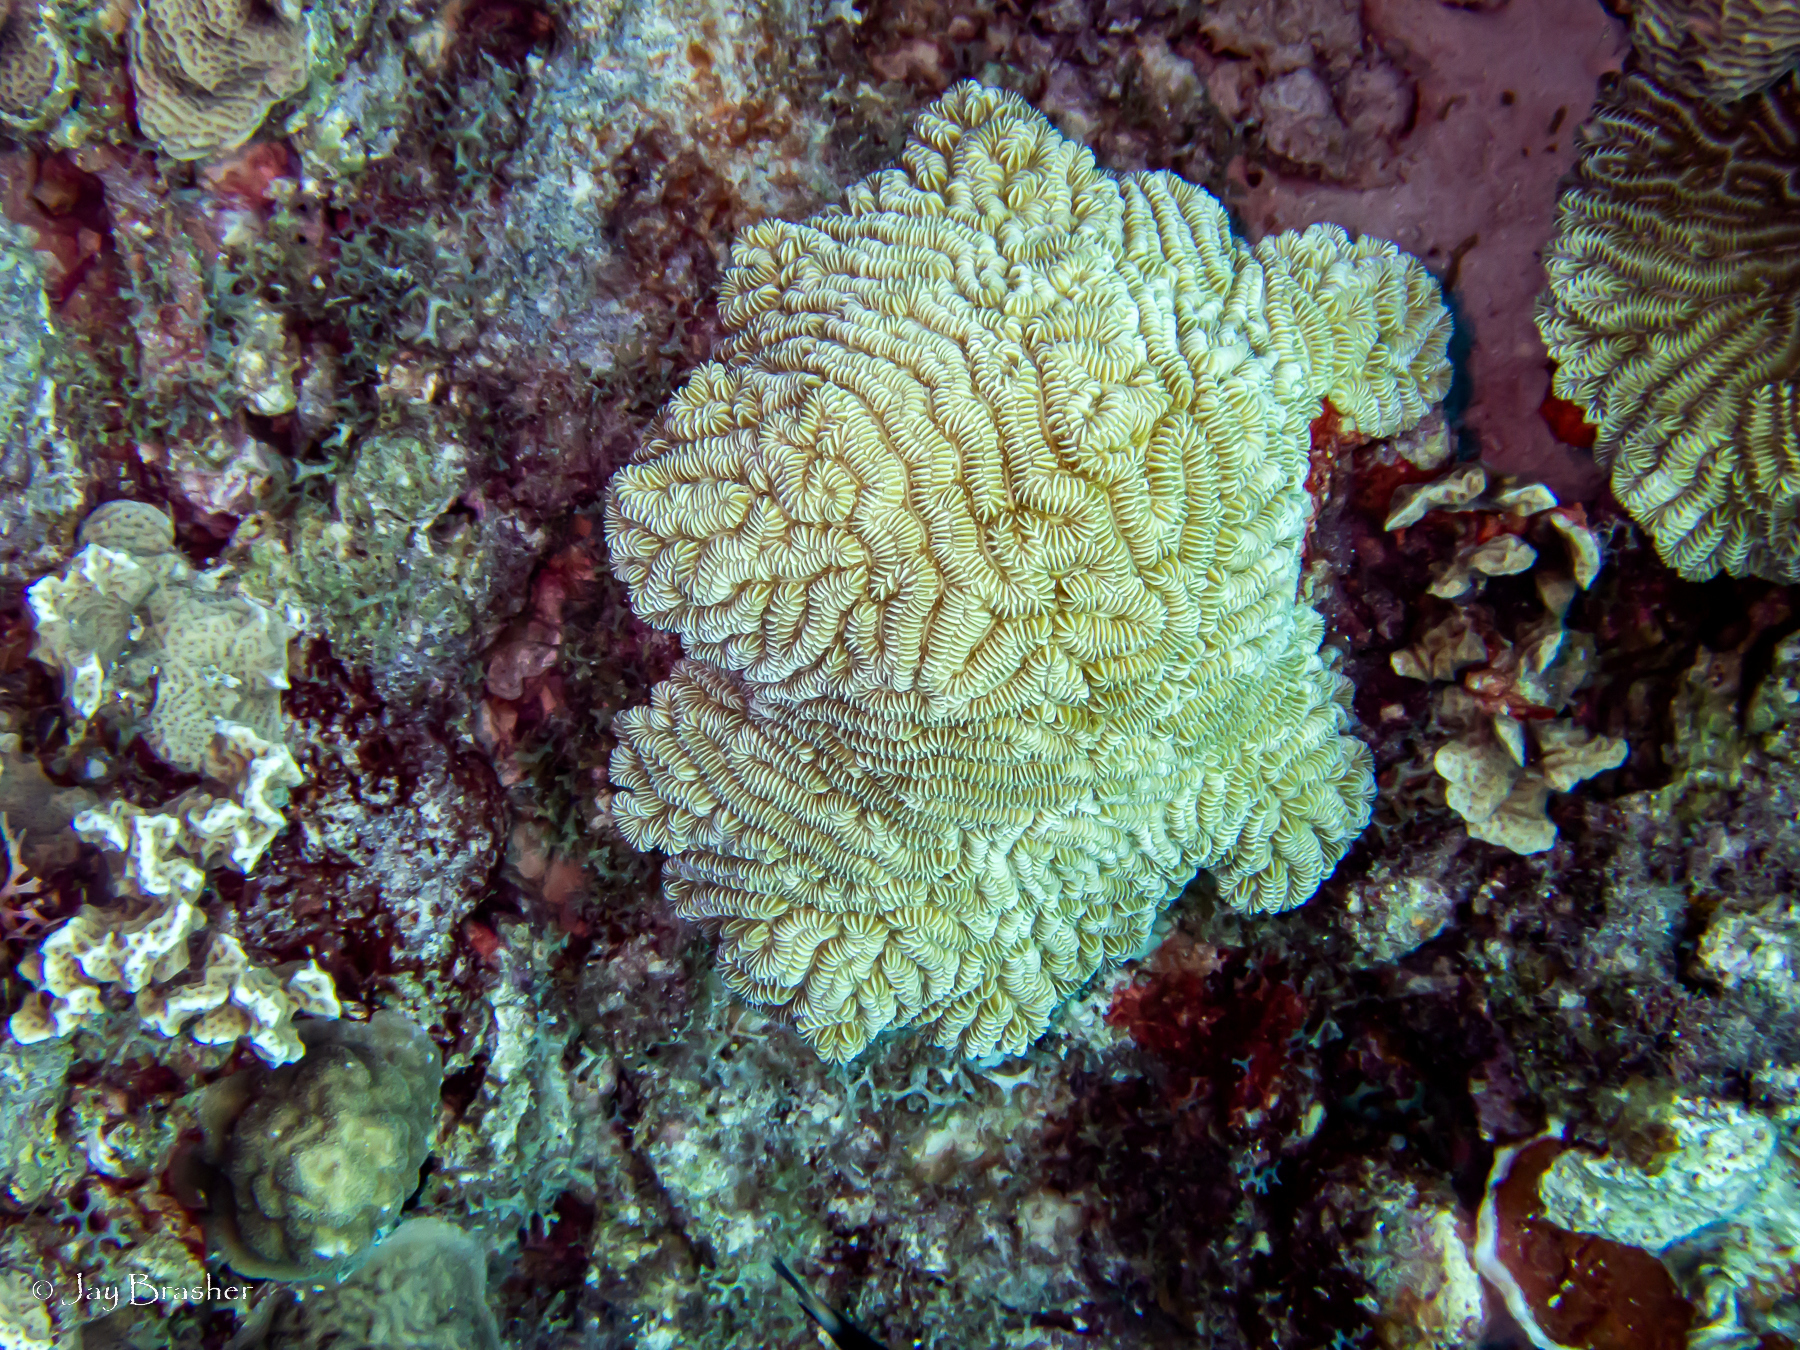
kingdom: Animalia
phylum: Cnidaria
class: Anthozoa
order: Scleractinia
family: Meandrinidae
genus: Meandrina
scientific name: Meandrina meandrites
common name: Maze coral
